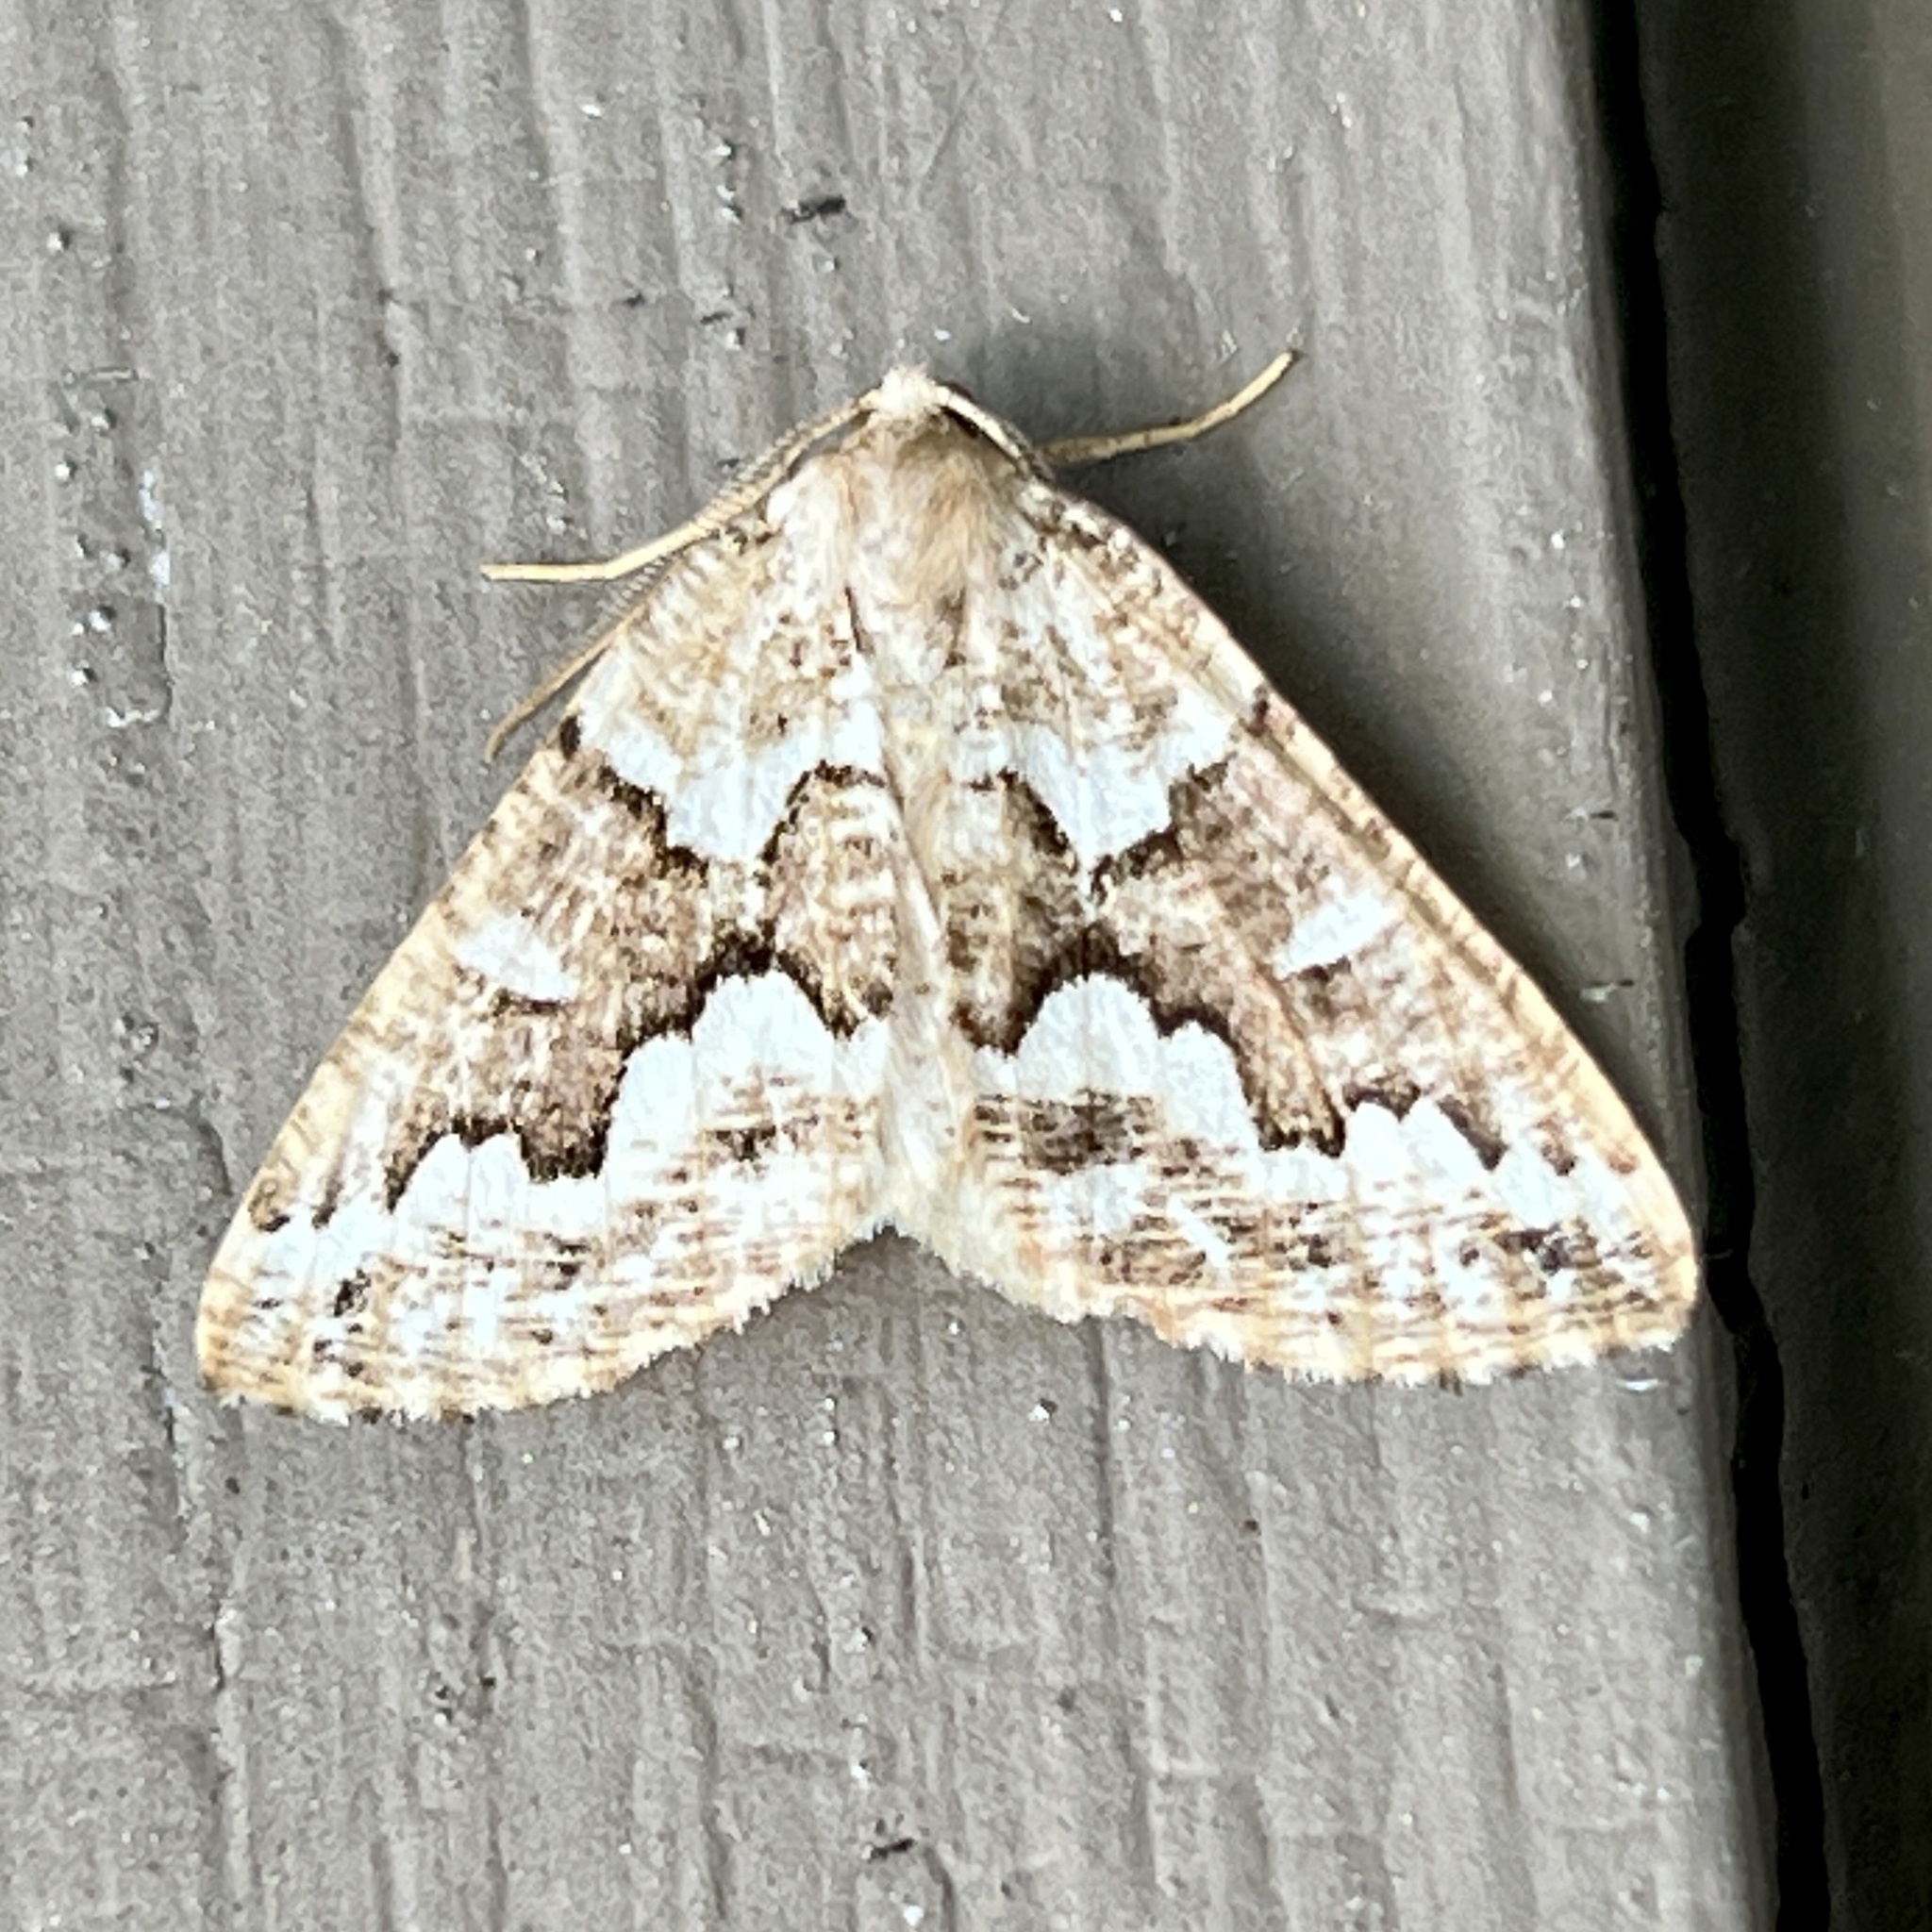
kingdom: Animalia
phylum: Arthropoda
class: Insecta
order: Lepidoptera
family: Geometridae
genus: Caripeta
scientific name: Caripeta divisata
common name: Gray spruce looper
